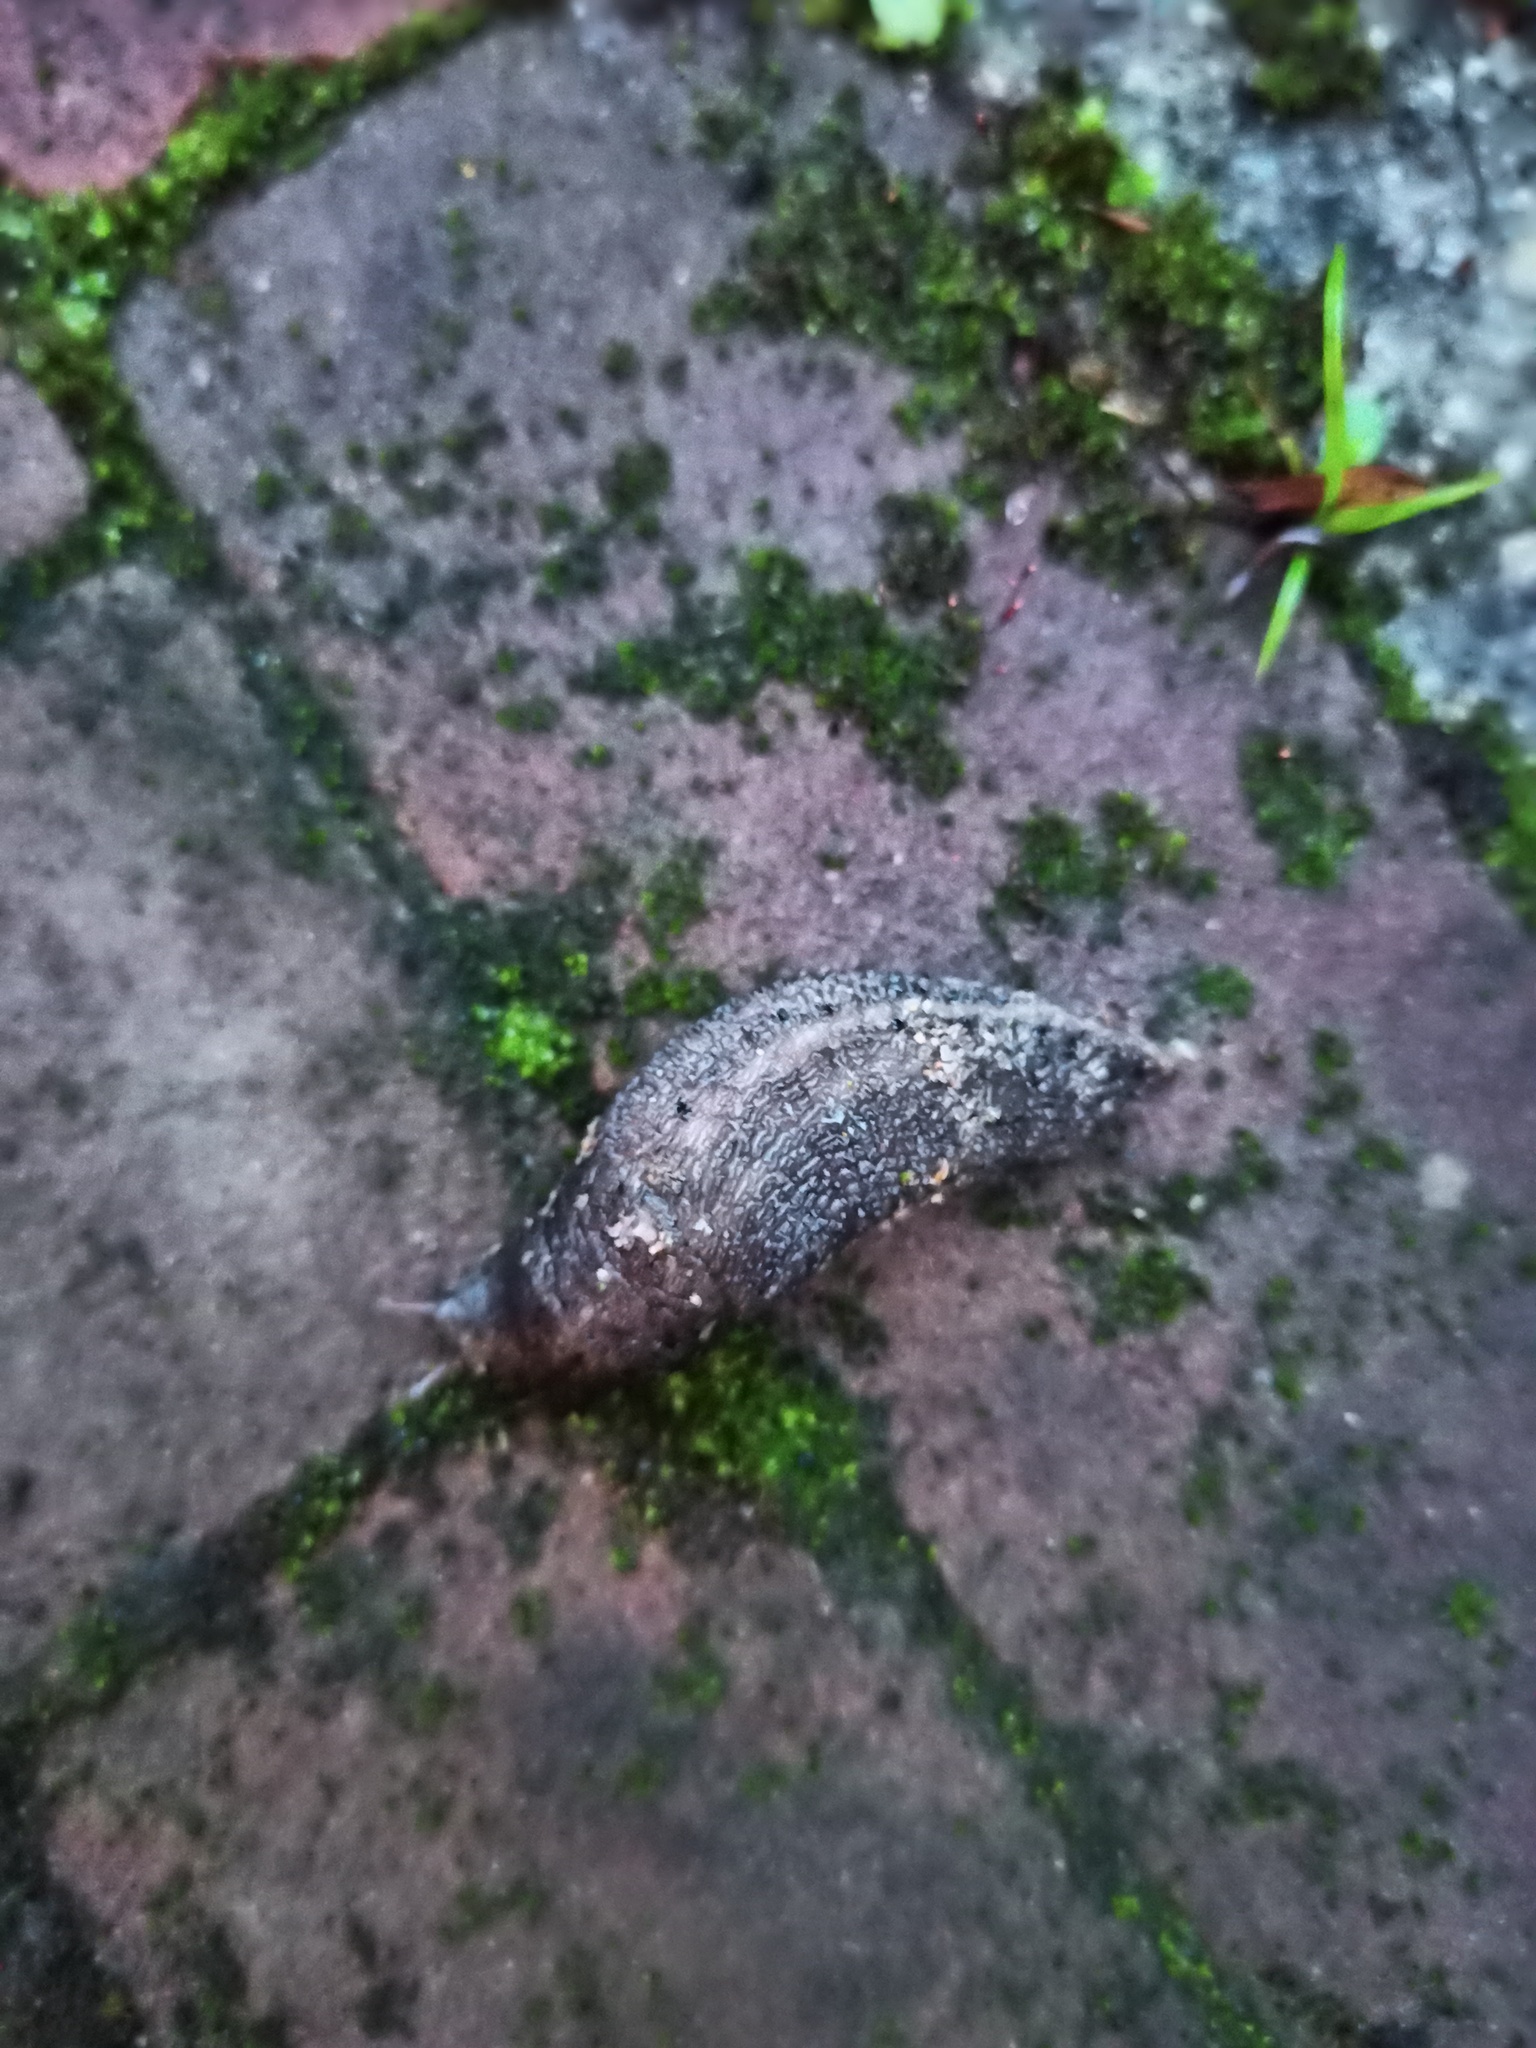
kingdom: Animalia
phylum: Mollusca
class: Gastropoda
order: Stylommatophora
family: Limacidae
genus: Limax
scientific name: Limax maximus
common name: Great grey slug
